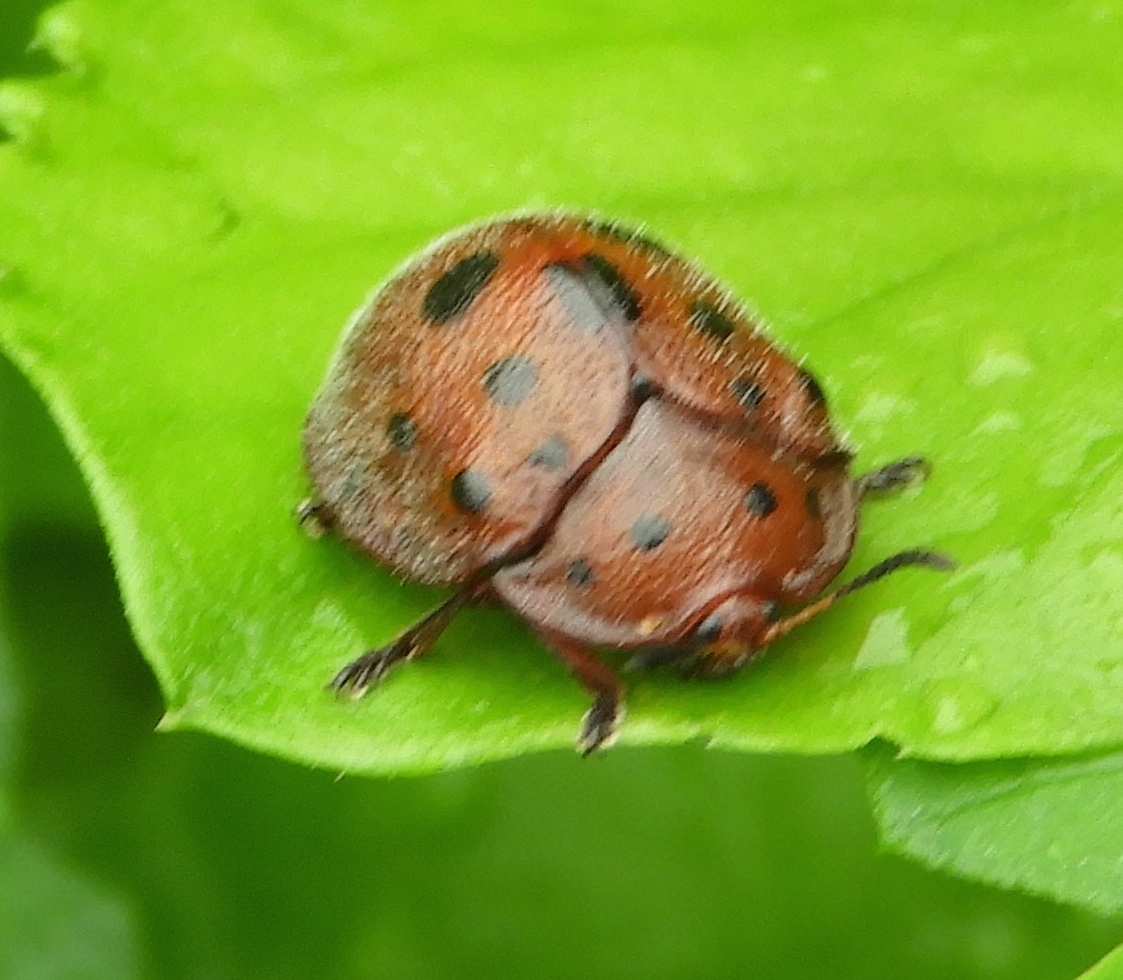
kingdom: Animalia
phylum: Arthropoda
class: Insecta
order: Coleoptera
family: Chrysomelidae
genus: Chelymorpha
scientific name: Chelymorpha
